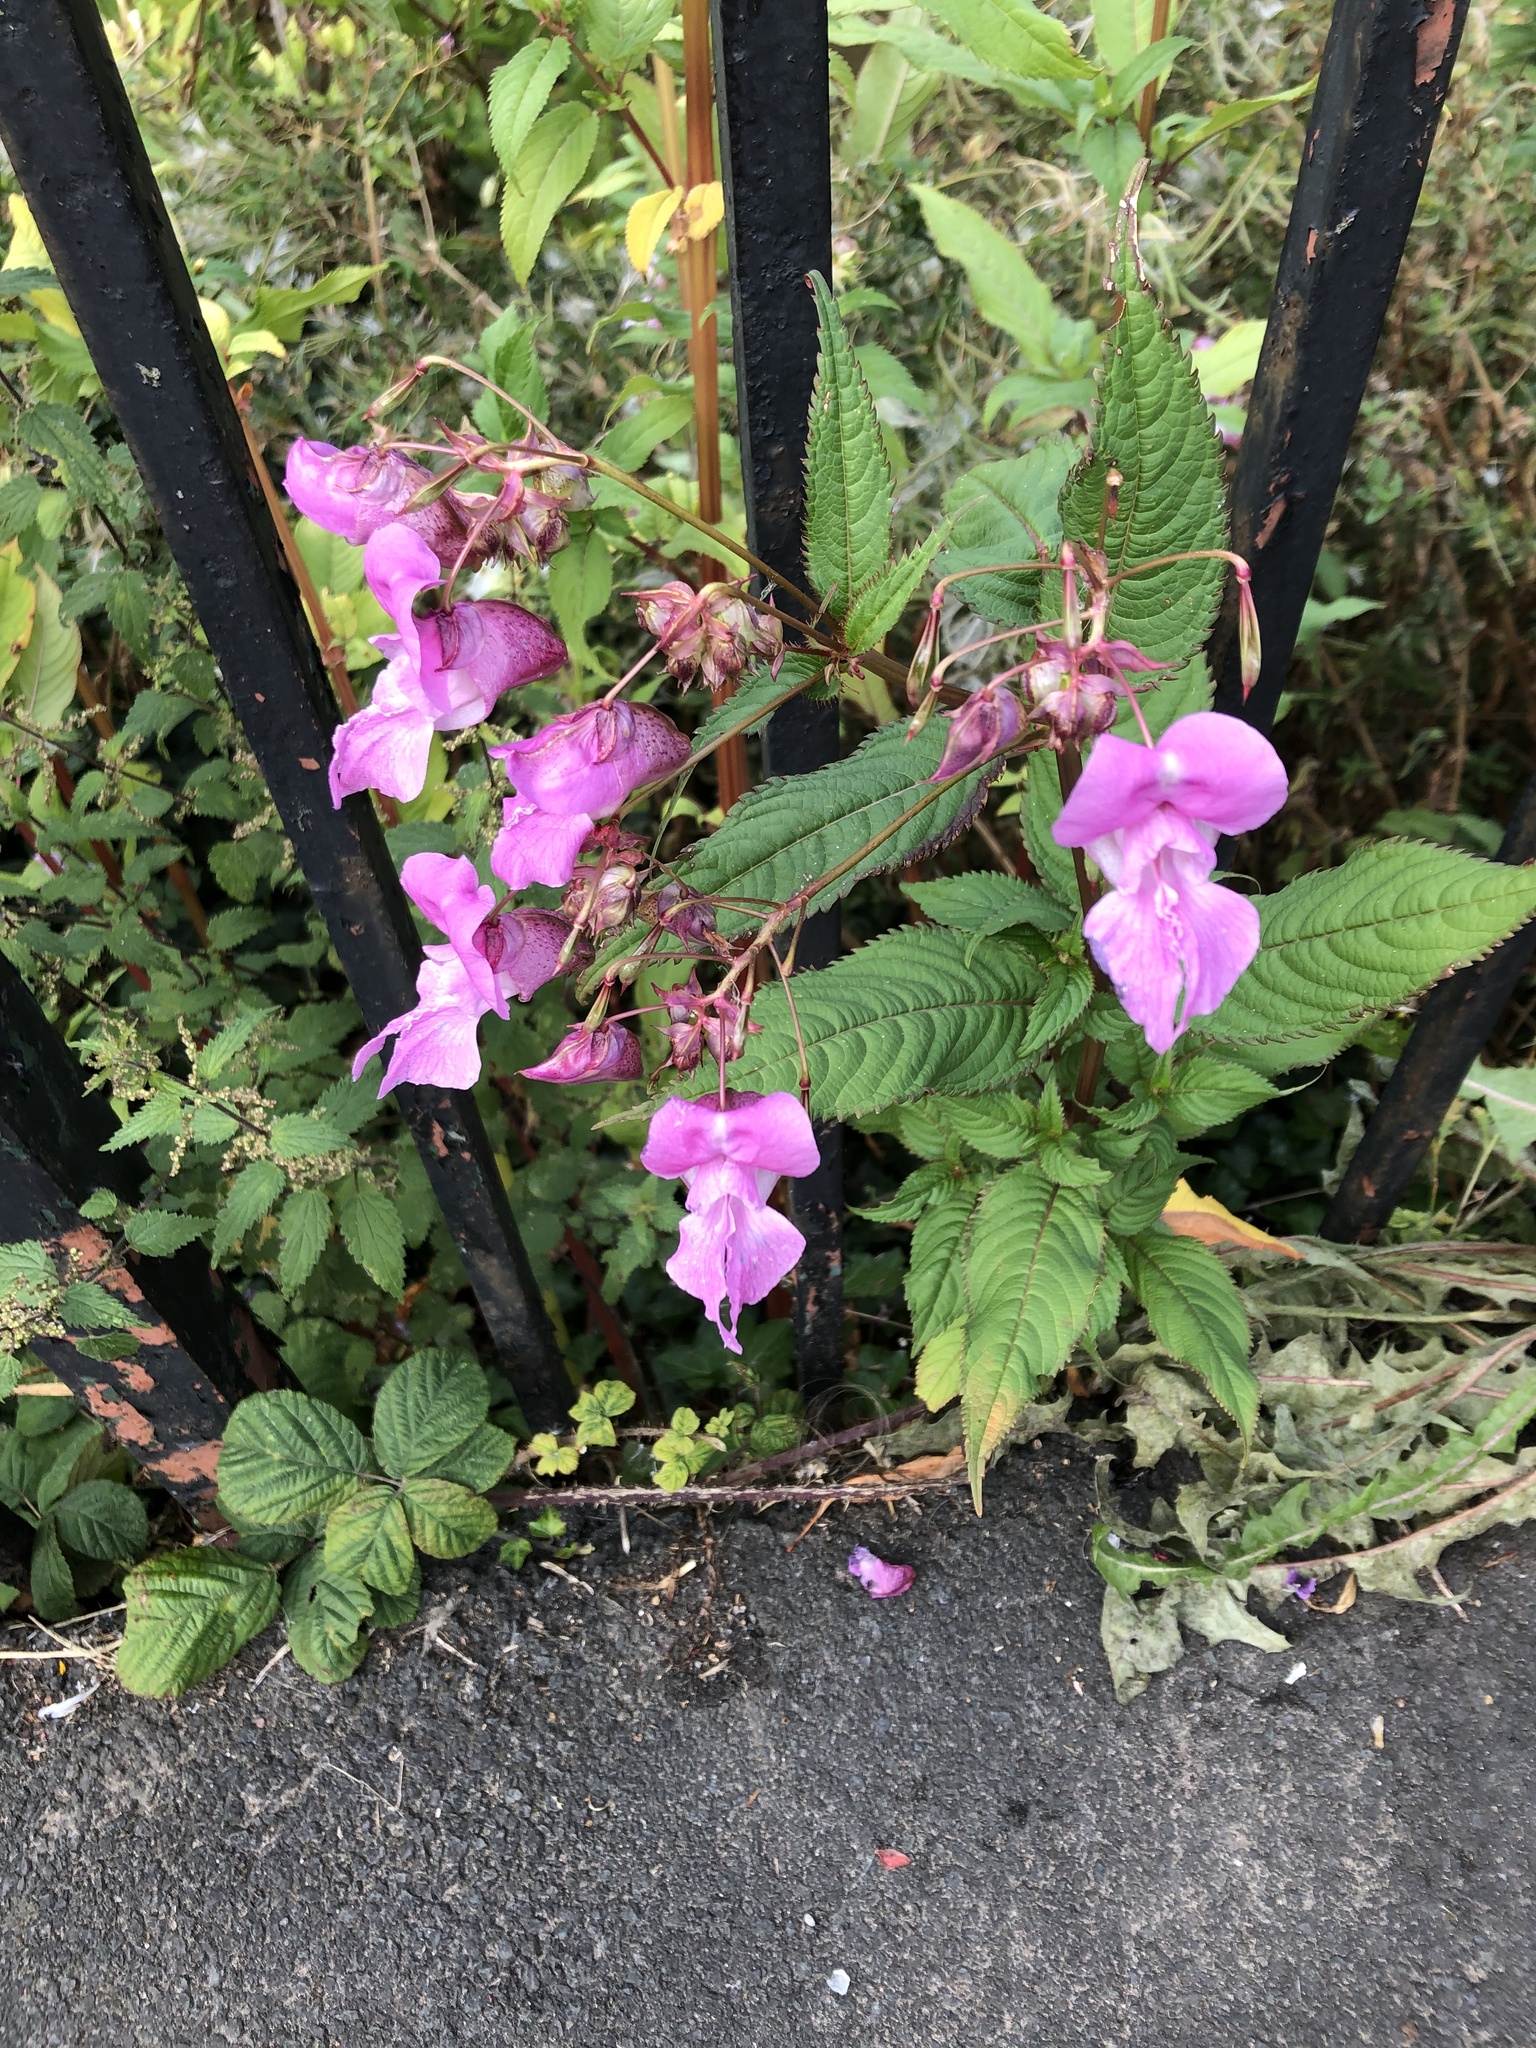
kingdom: Plantae
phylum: Tracheophyta
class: Magnoliopsida
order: Ericales
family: Balsaminaceae
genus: Impatiens
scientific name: Impatiens glandulifera
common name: Himalayan balsam
